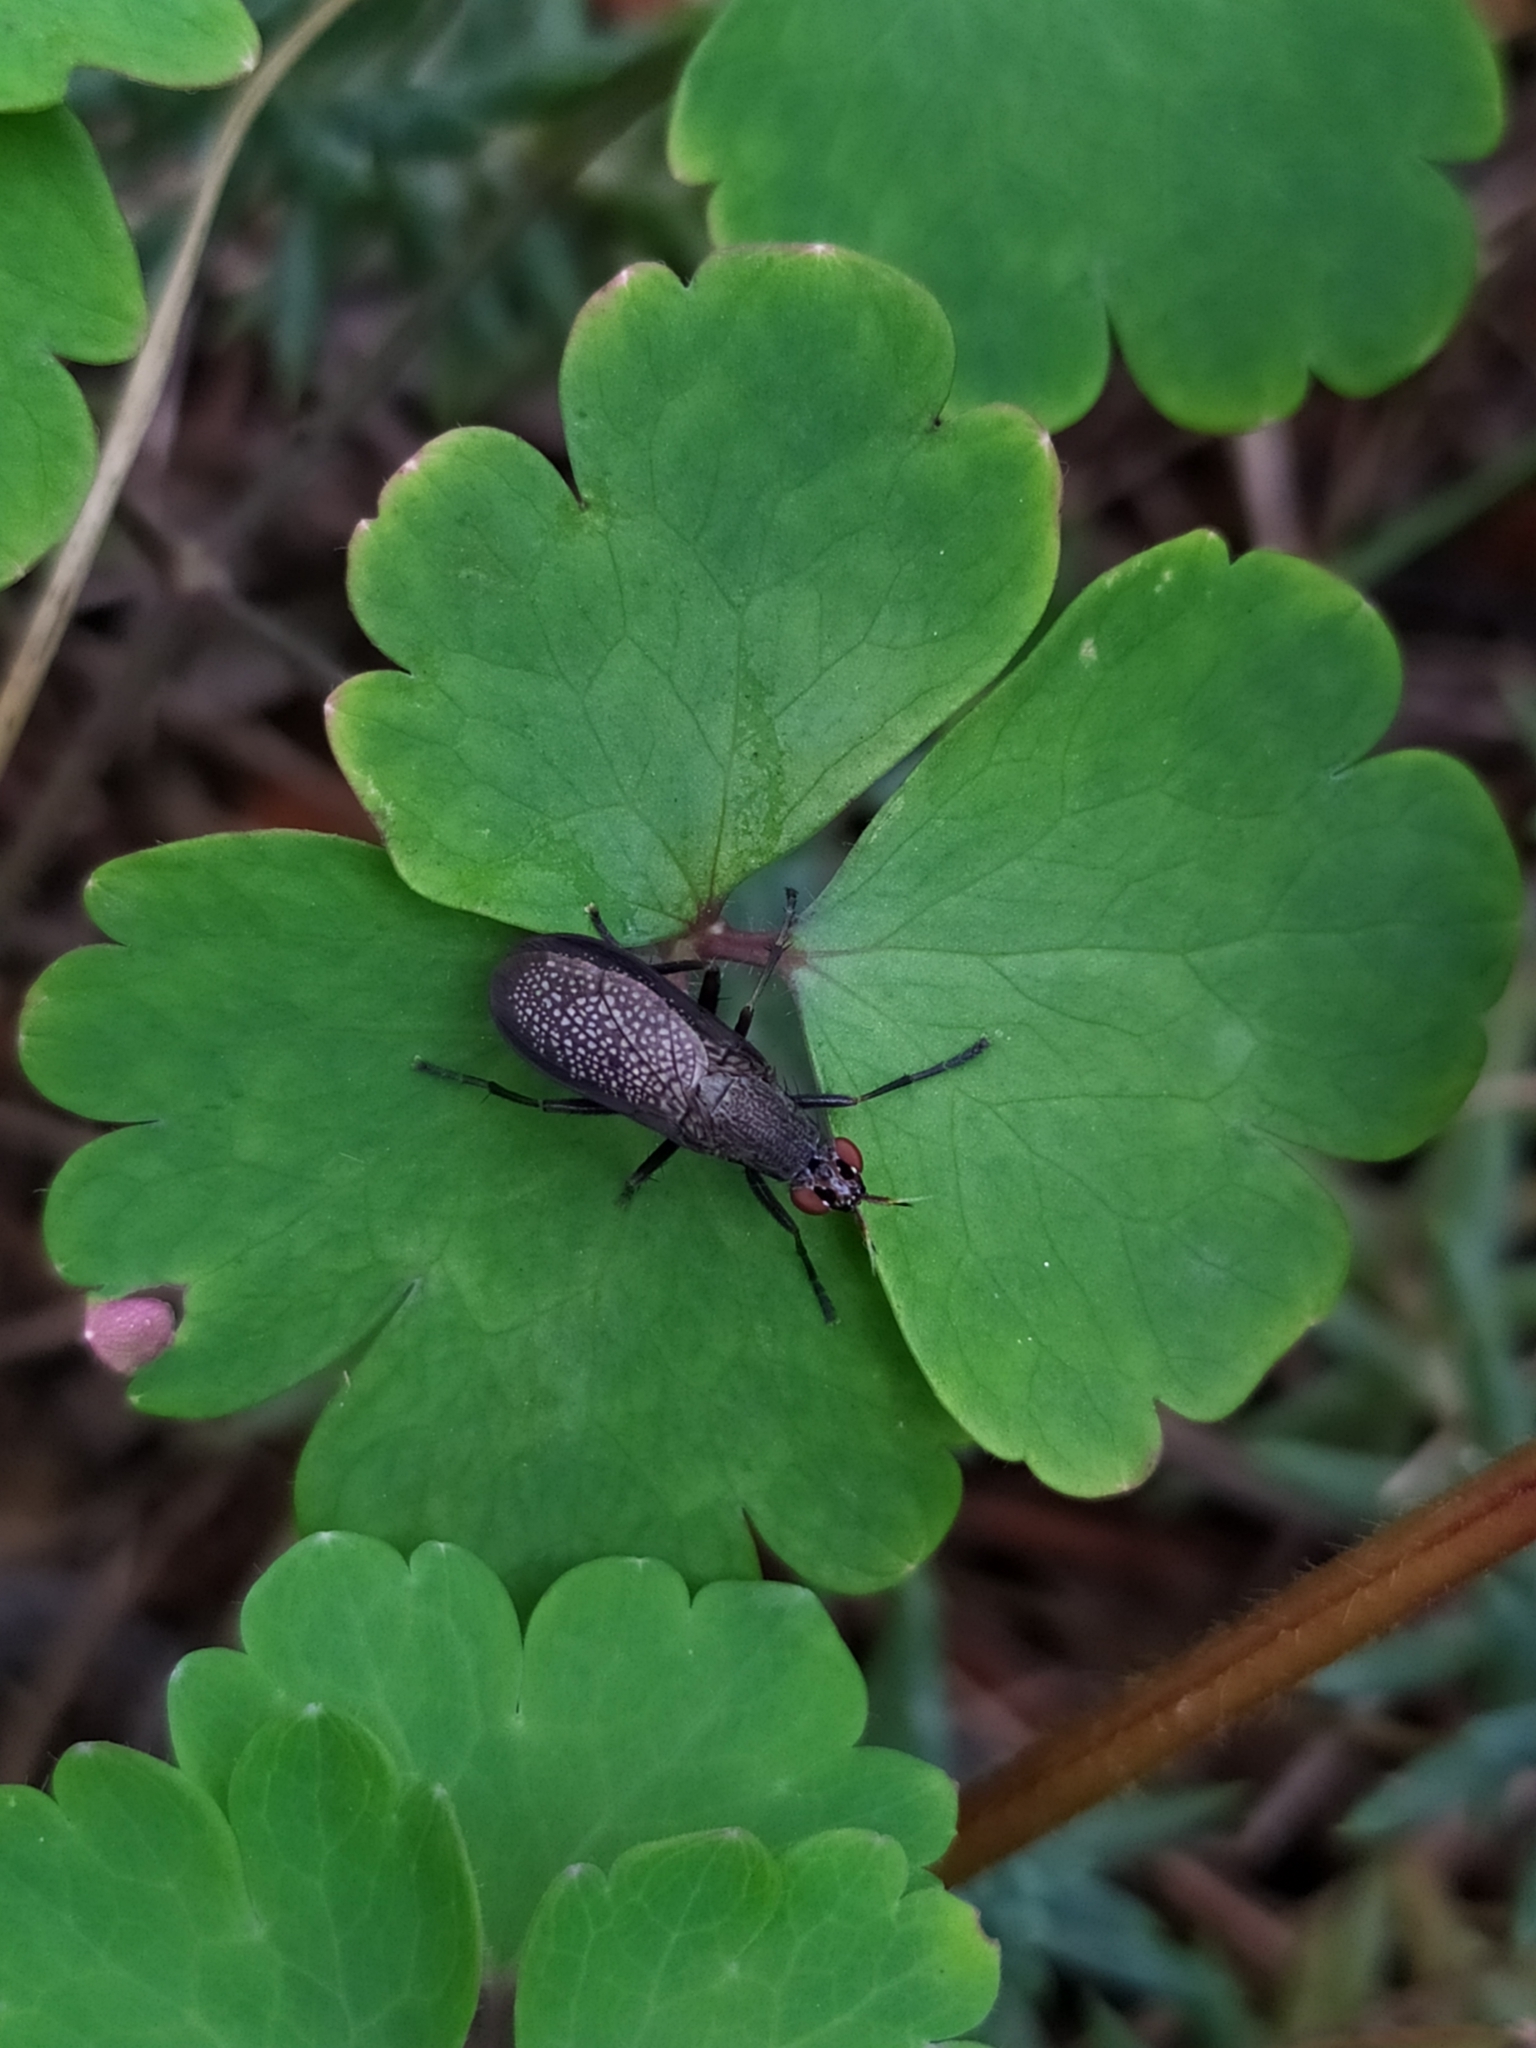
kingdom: Animalia
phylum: Arthropoda
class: Insecta
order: Diptera
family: Sciomyzidae
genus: Coremacera
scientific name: Coremacera marginata
